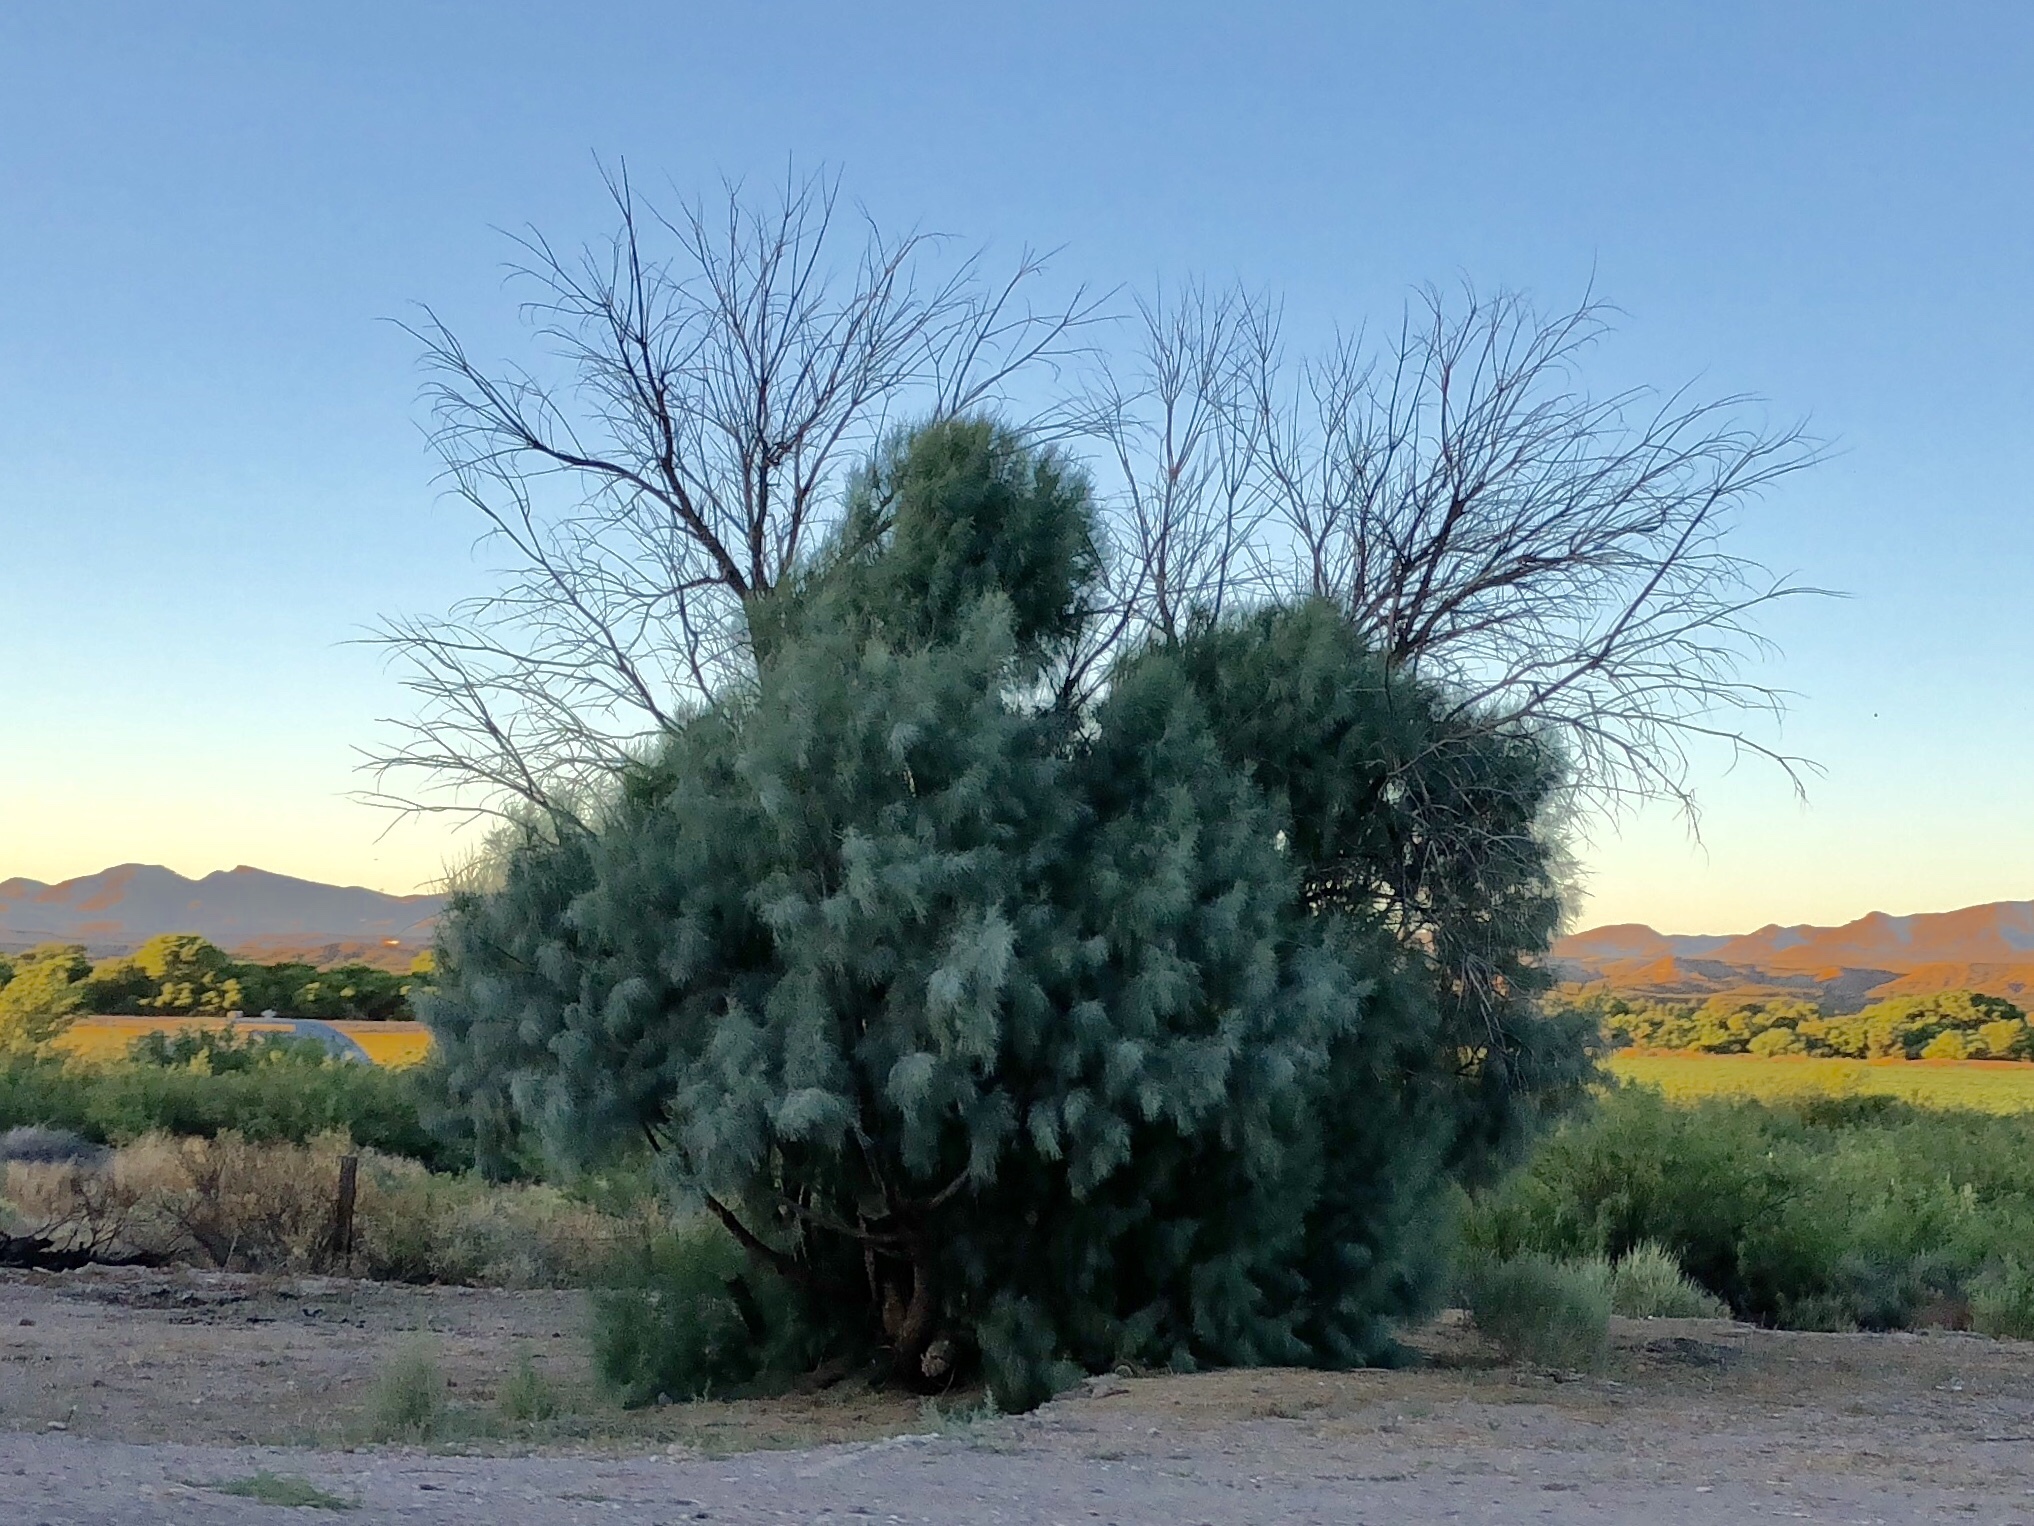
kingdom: Plantae
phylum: Tracheophyta
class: Magnoliopsida
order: Caryophyllales
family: Tamaricaceae
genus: Tamarix
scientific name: Tamarix aphylla
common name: Athel tamarisk
